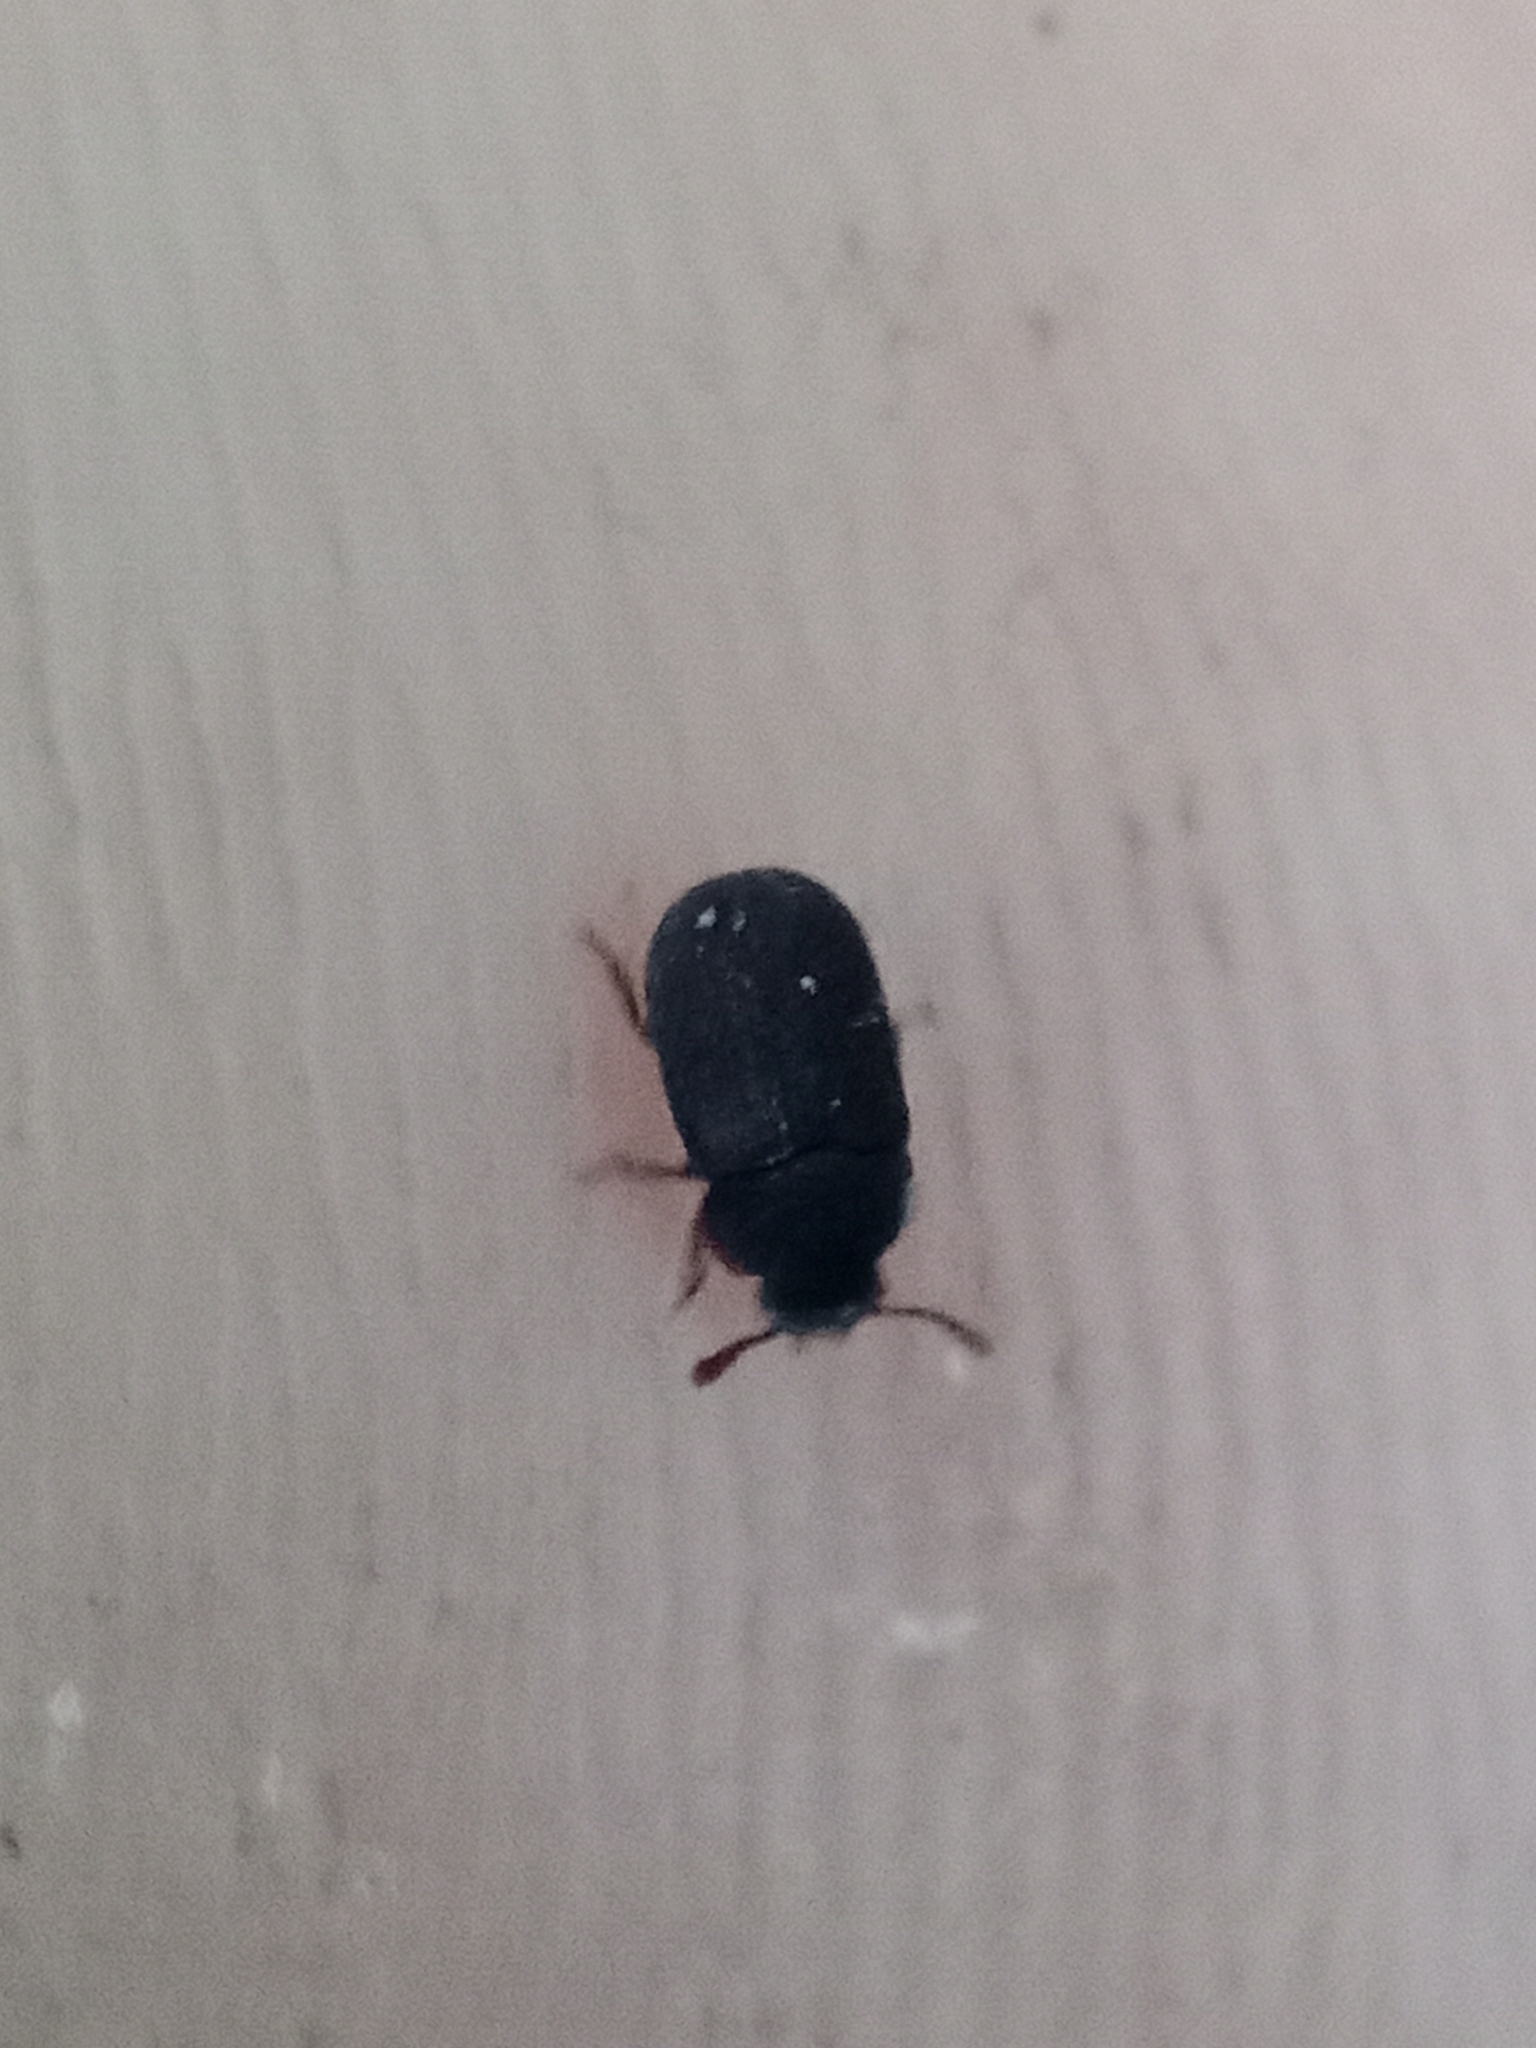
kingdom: Animalia
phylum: Arthropoda
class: Insecta
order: Coleoptera
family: Tenebrionidae
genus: Eledona
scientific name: Eledona agricola
